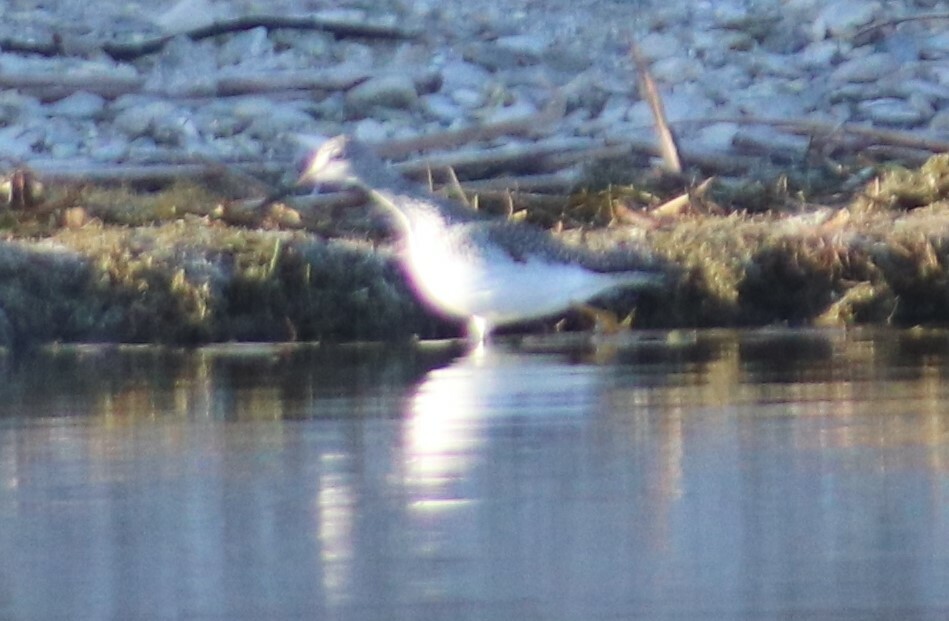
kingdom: Animalia
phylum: Chordata
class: Aves
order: Charadriiformes
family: Scolopacidae
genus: Tringa
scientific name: Tringa melanoleuca
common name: Greater yellowlegs
